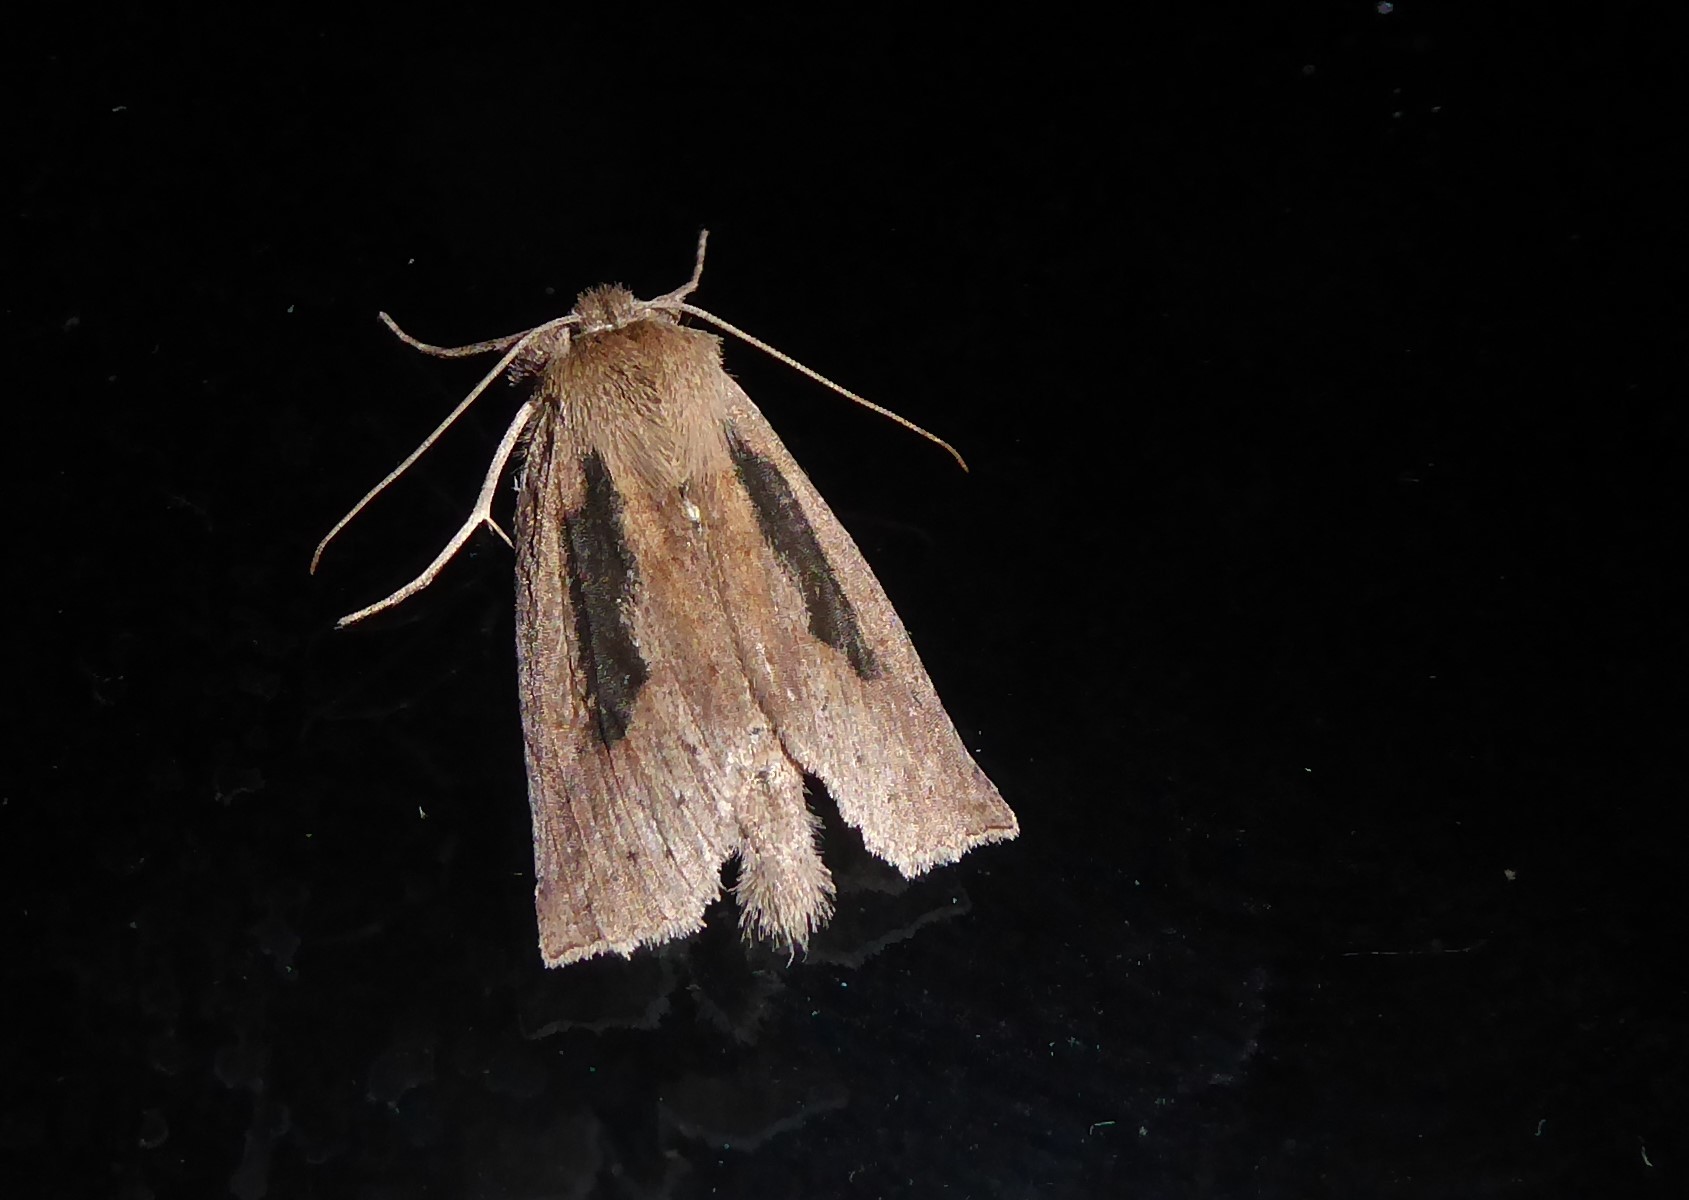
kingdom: Animalia
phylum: Arthropoda
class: Insecta
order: Lepidoptera
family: Geometridae
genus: Declana
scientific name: Declana leptomera
